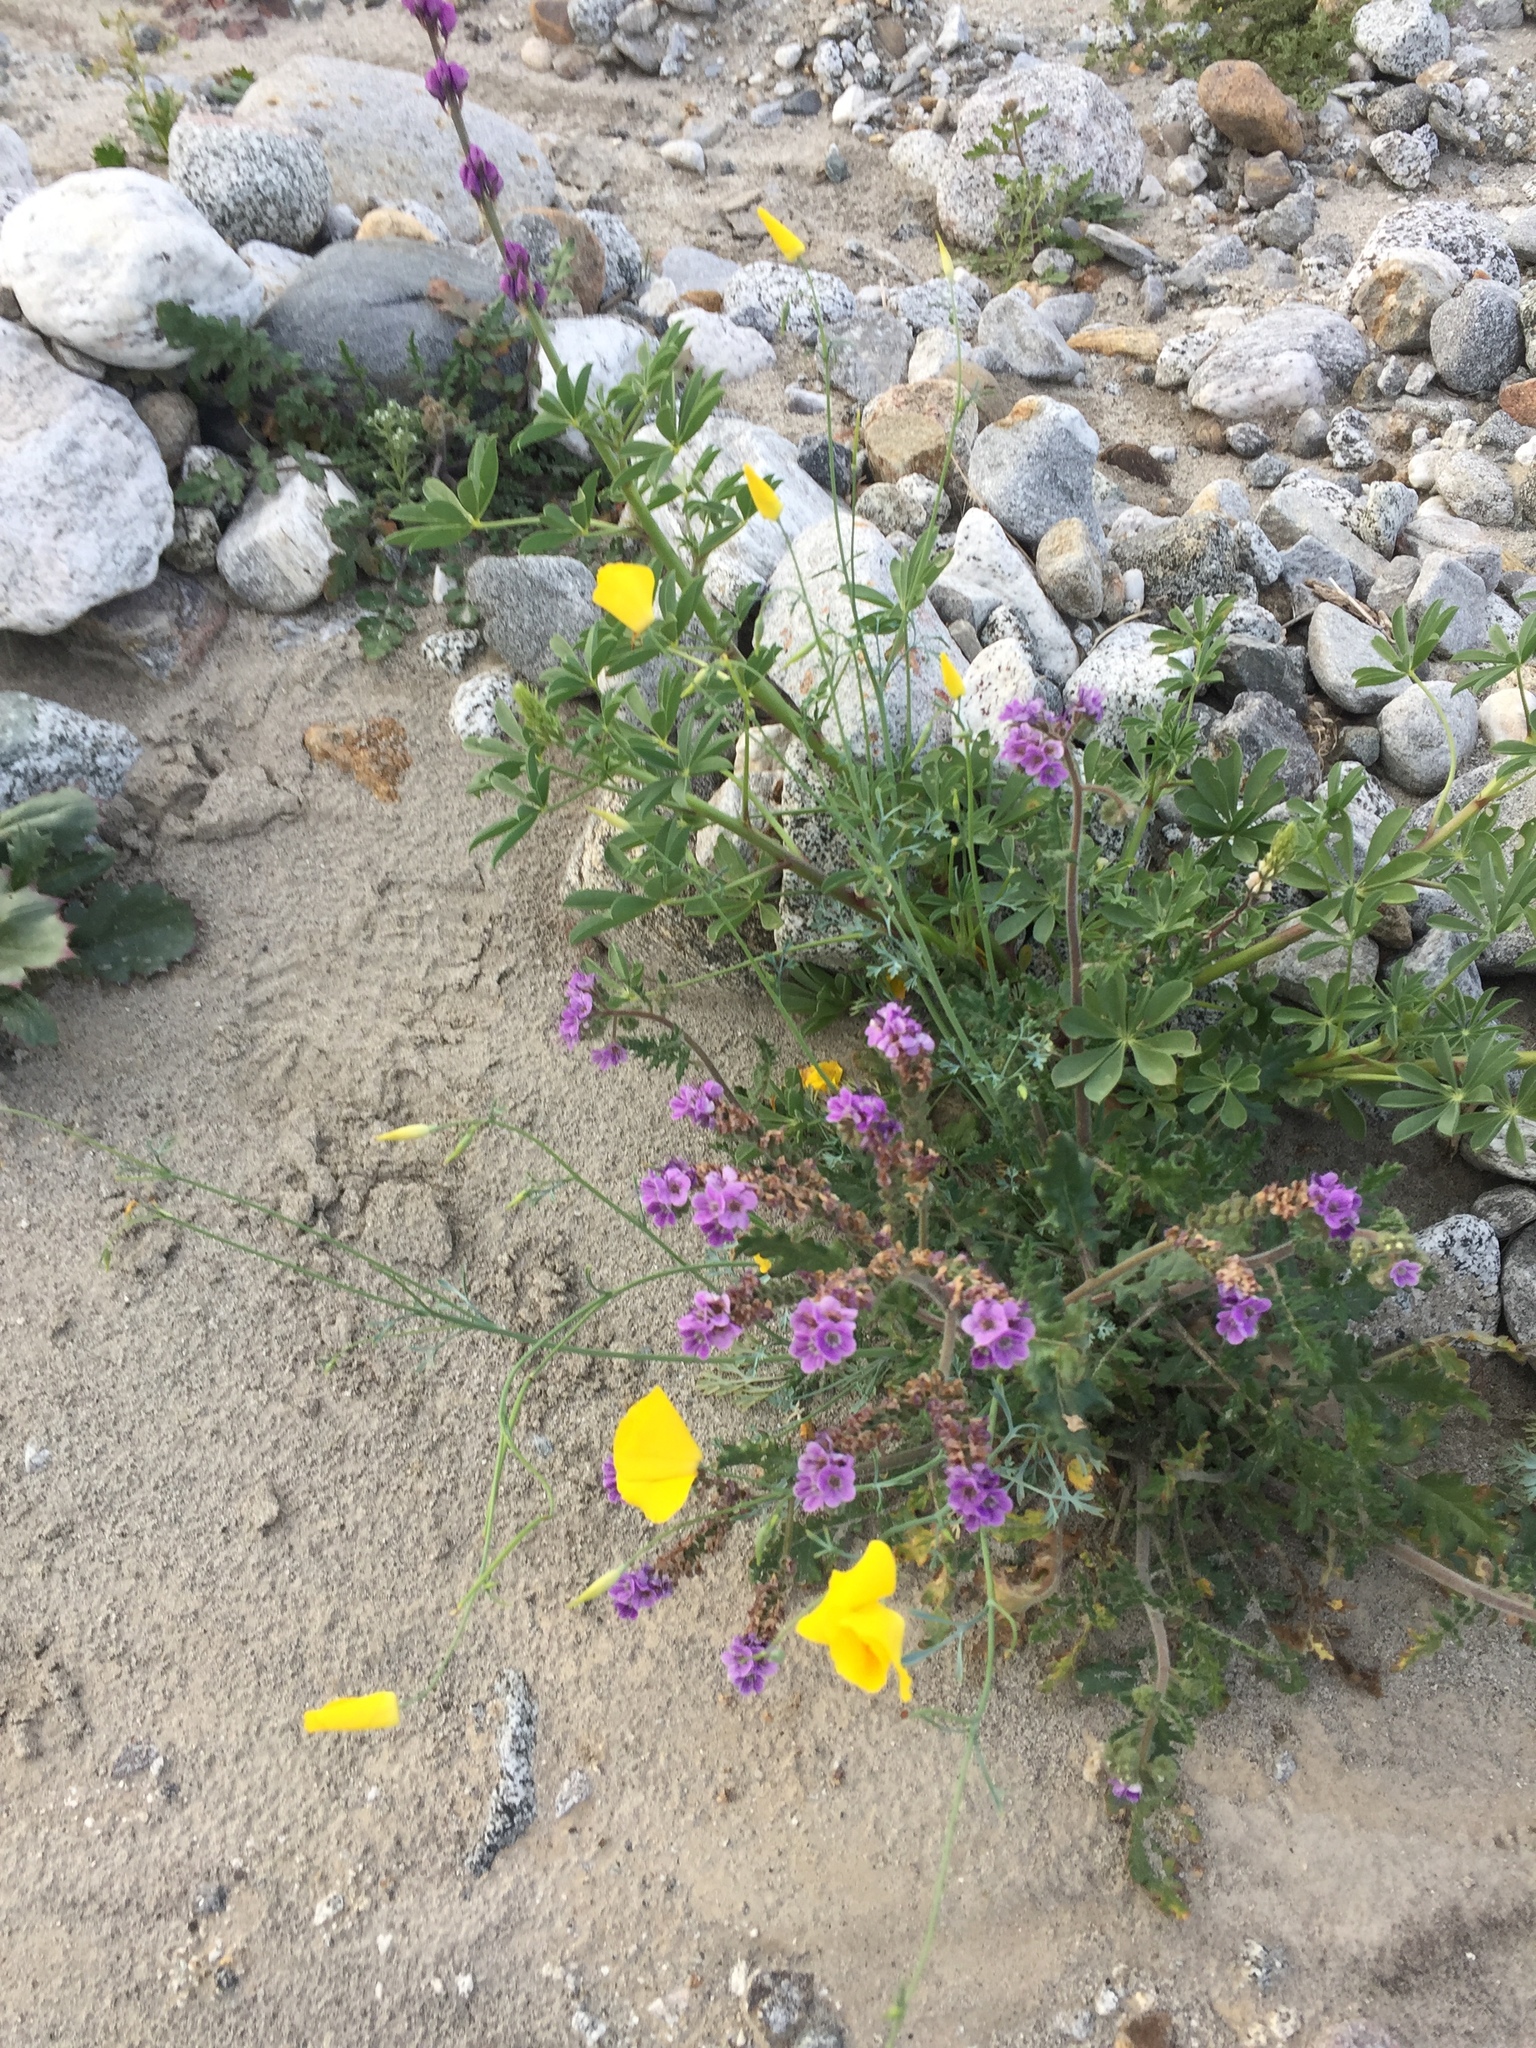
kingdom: Plantae
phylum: Tracheophyta
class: Magnoliopsida
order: Ranunculales
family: Papaveraceae
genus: Eschscholzia
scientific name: Eschscholzia parishii
